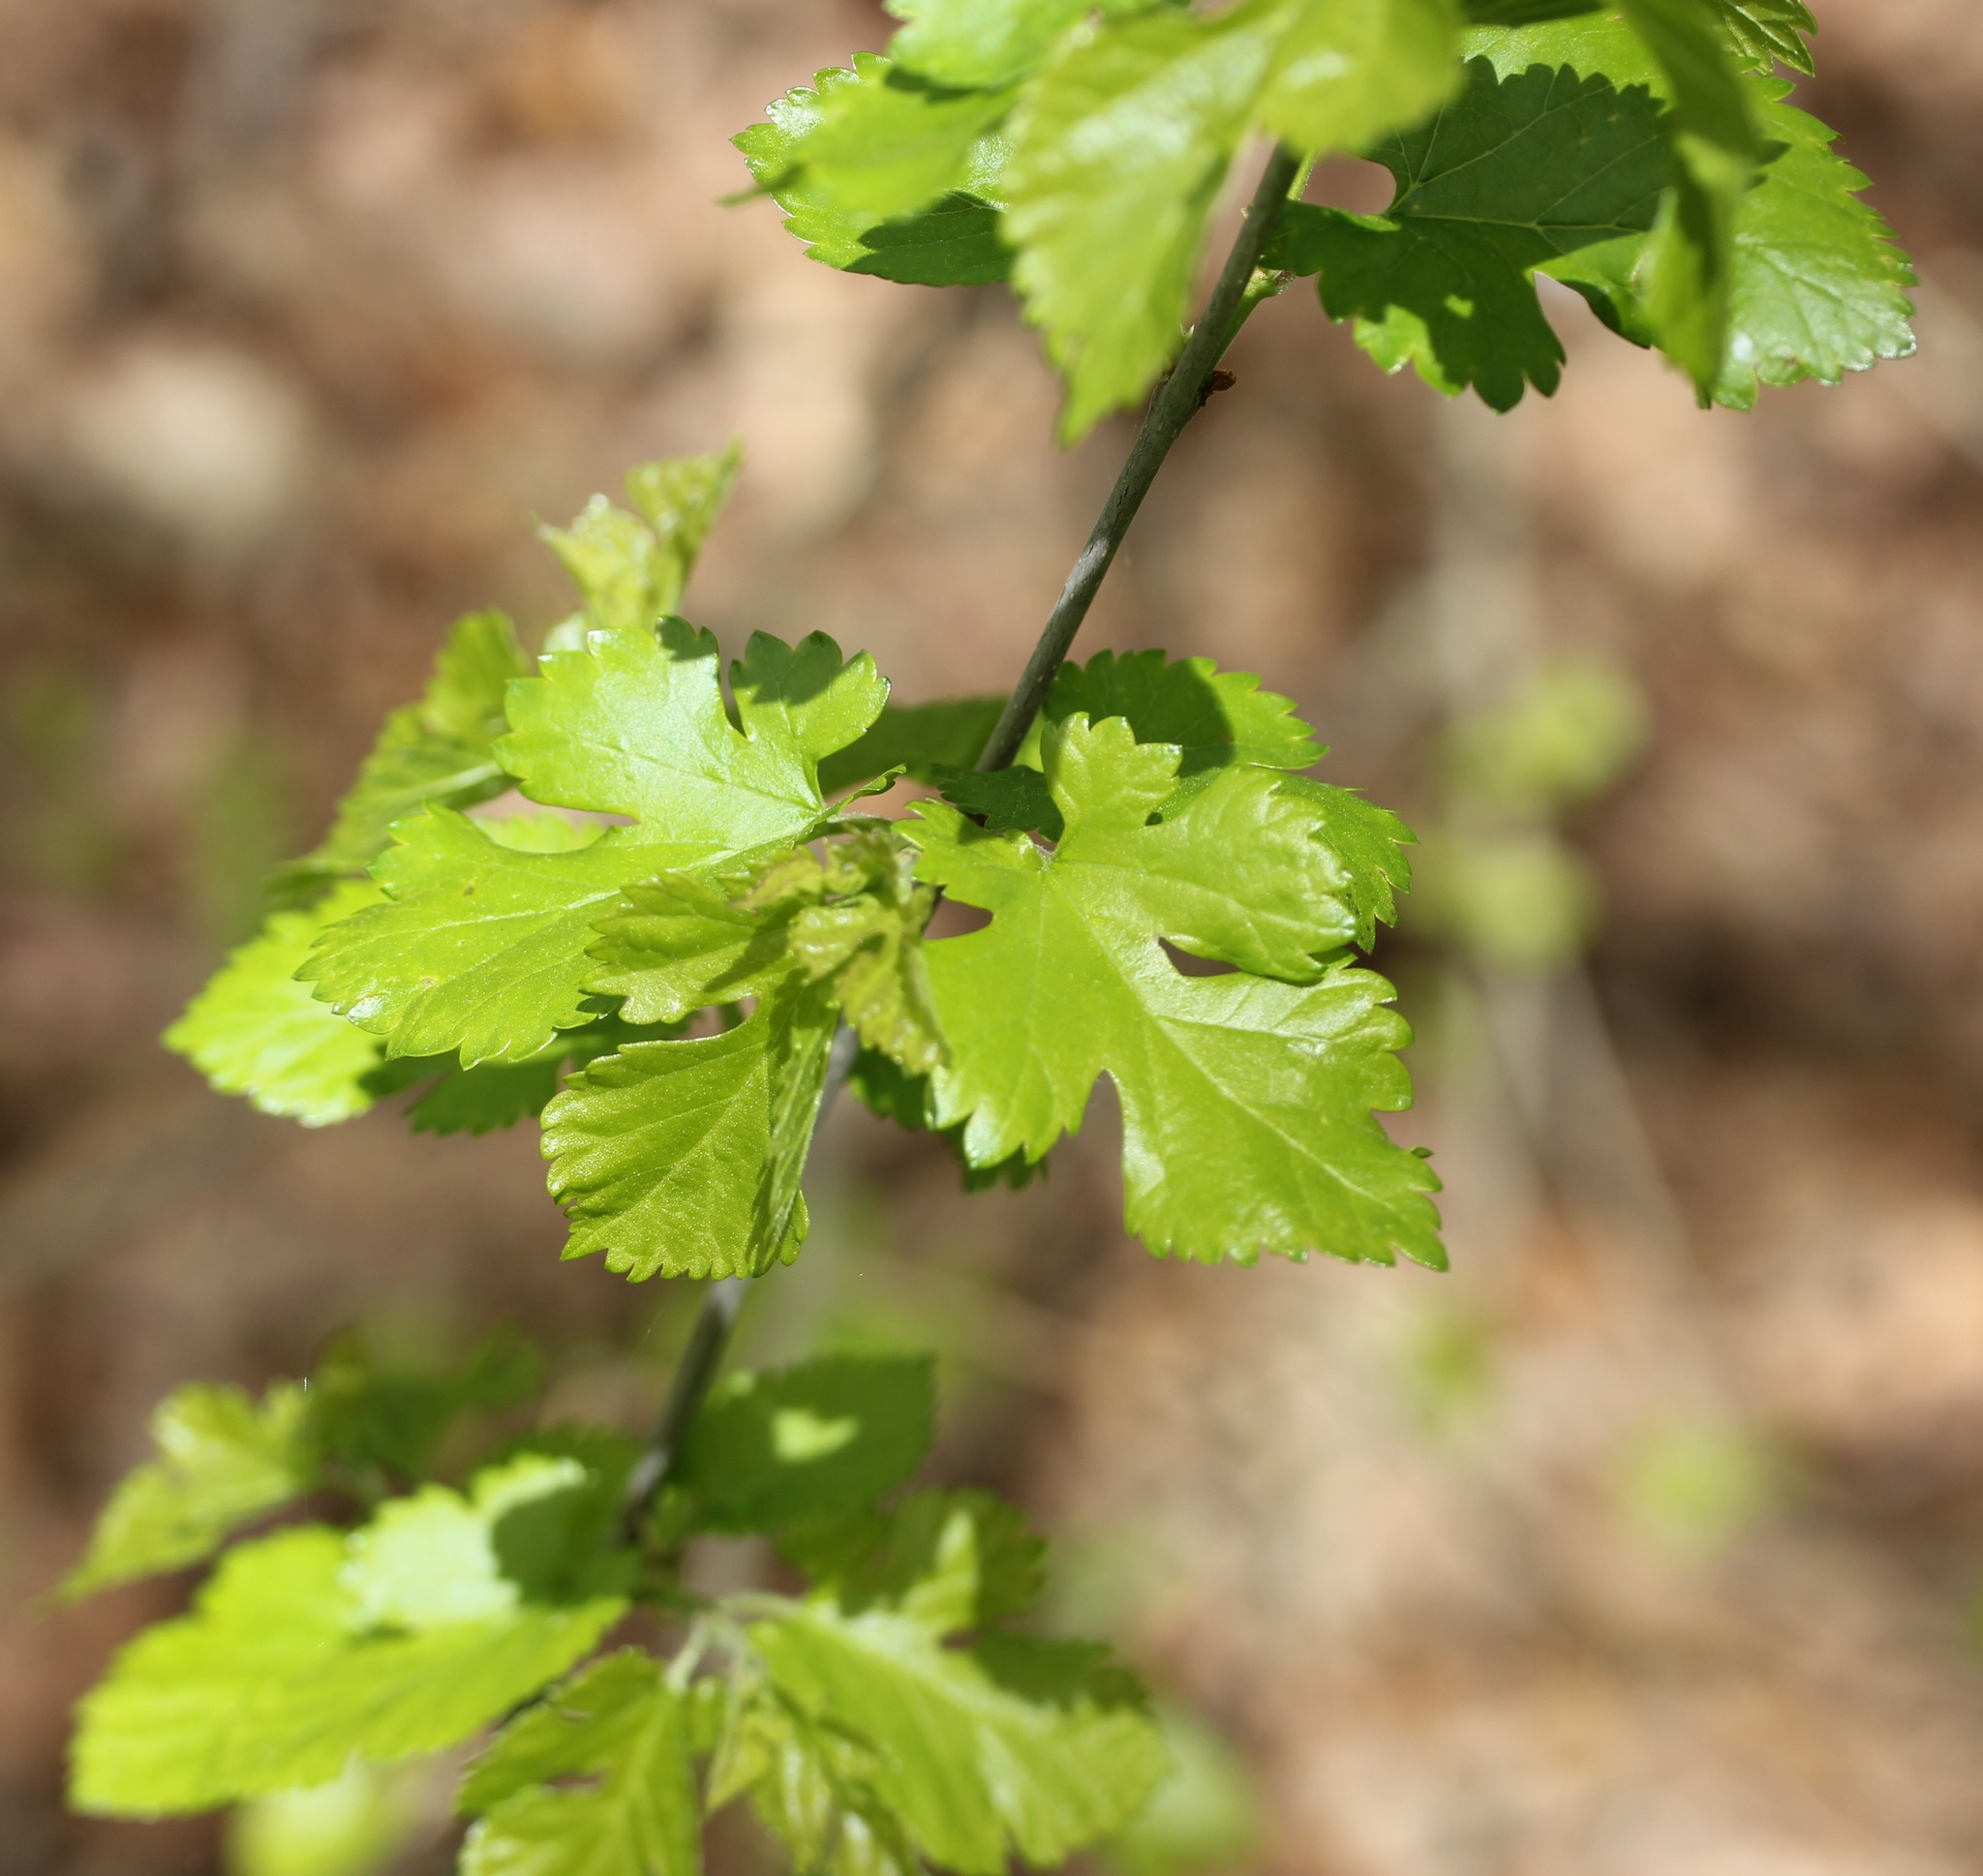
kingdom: Plantae
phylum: Tracheophyta
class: Magnoliopsida
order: Rosales
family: Moraceae
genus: Morus
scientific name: Morus alba
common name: White mulberry
